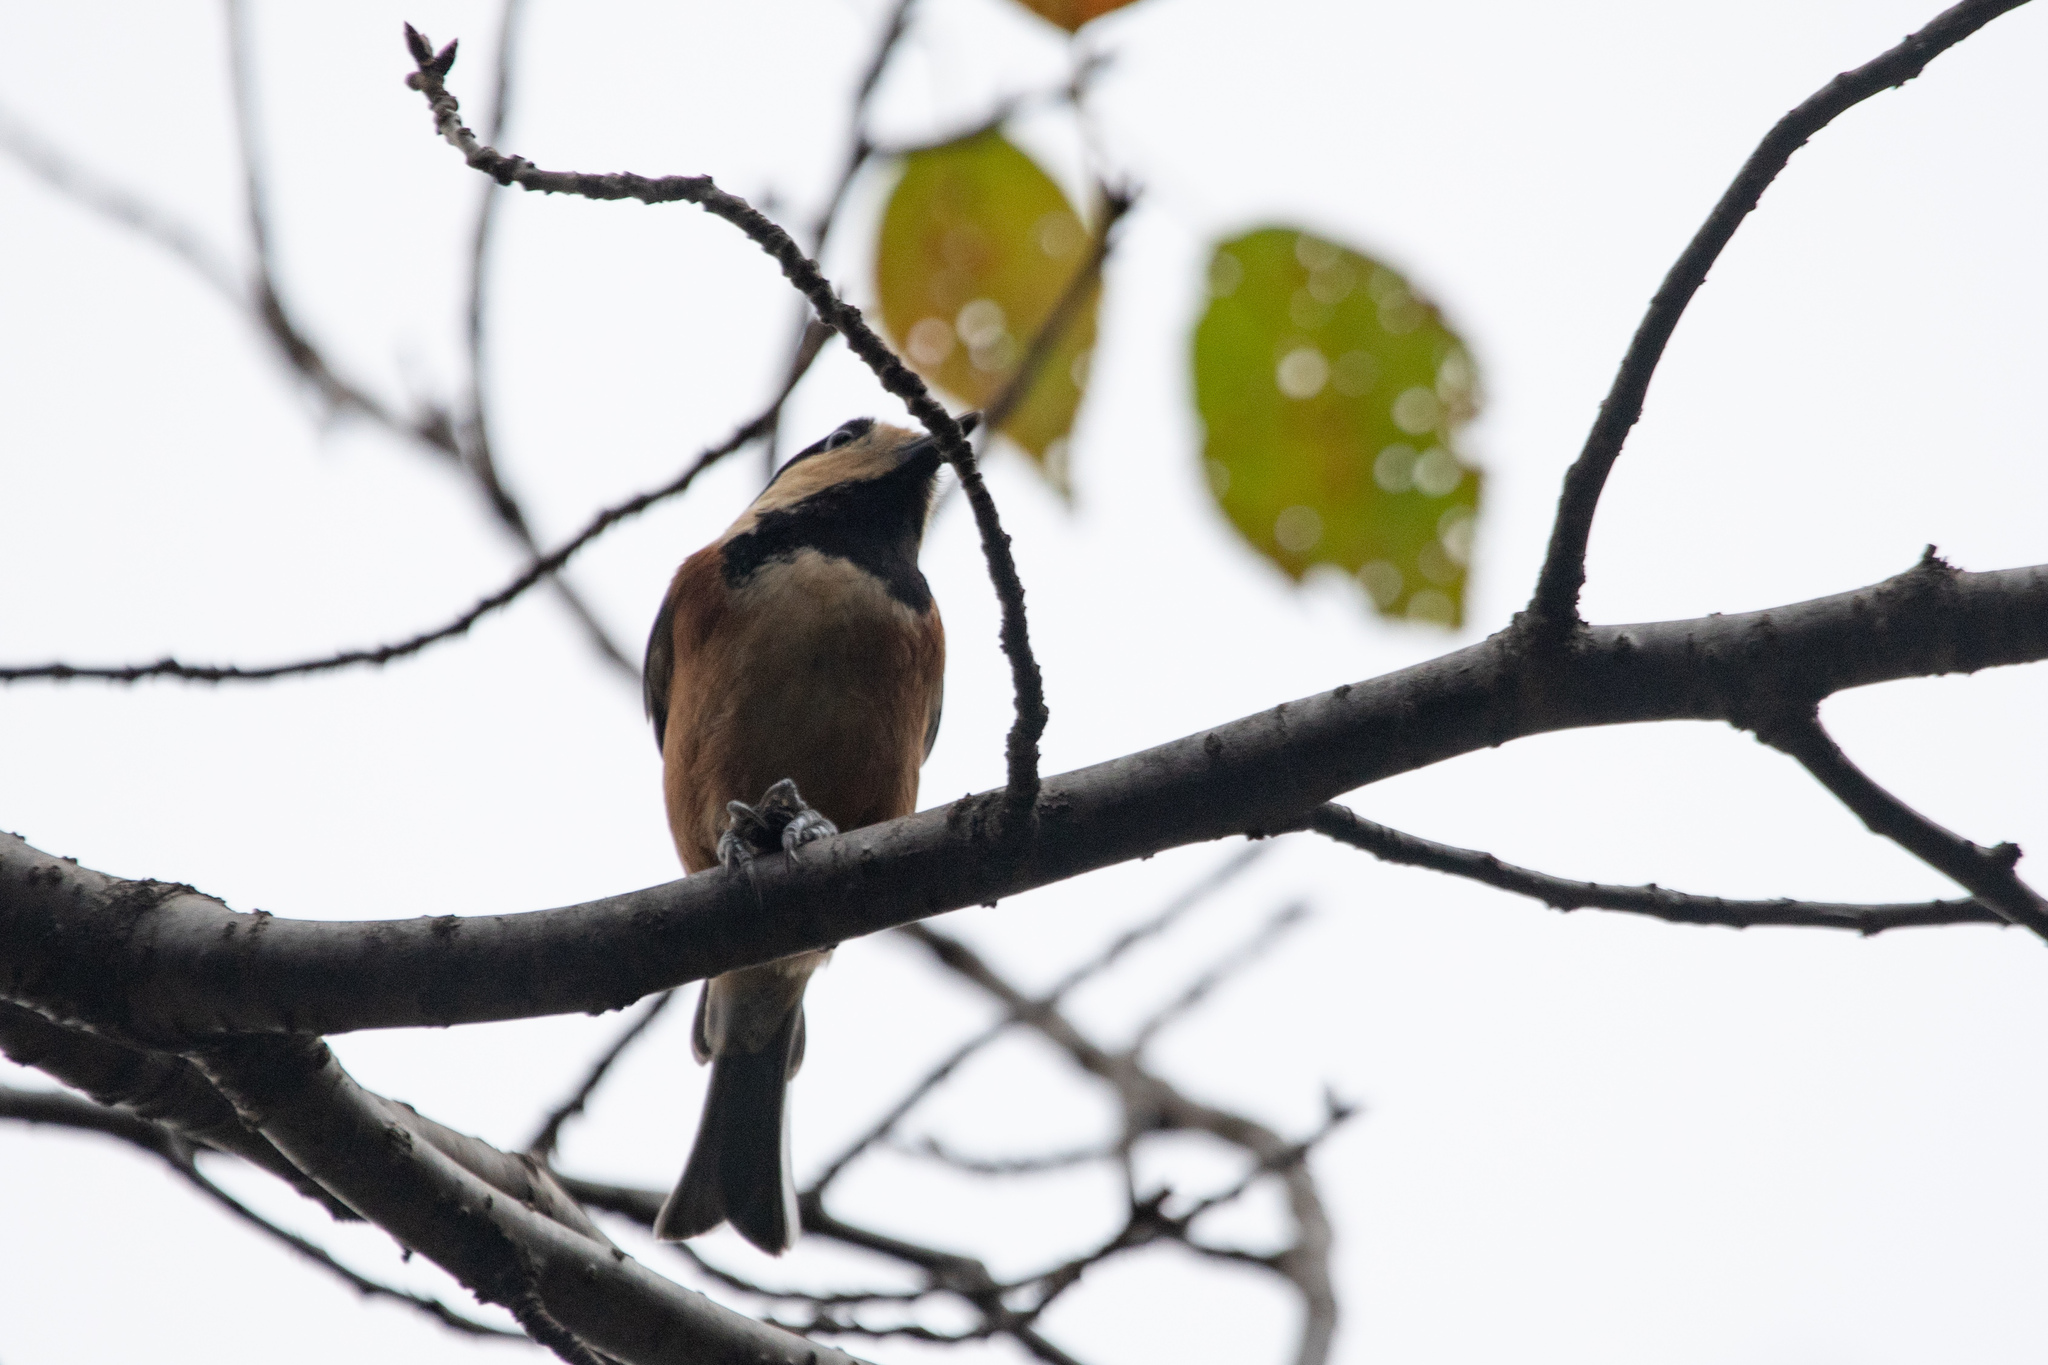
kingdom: Animalia
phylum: Chordata
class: Aves
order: Passeriformes
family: Paridae
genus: Poecile
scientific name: Poecile varius
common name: Varied tit
